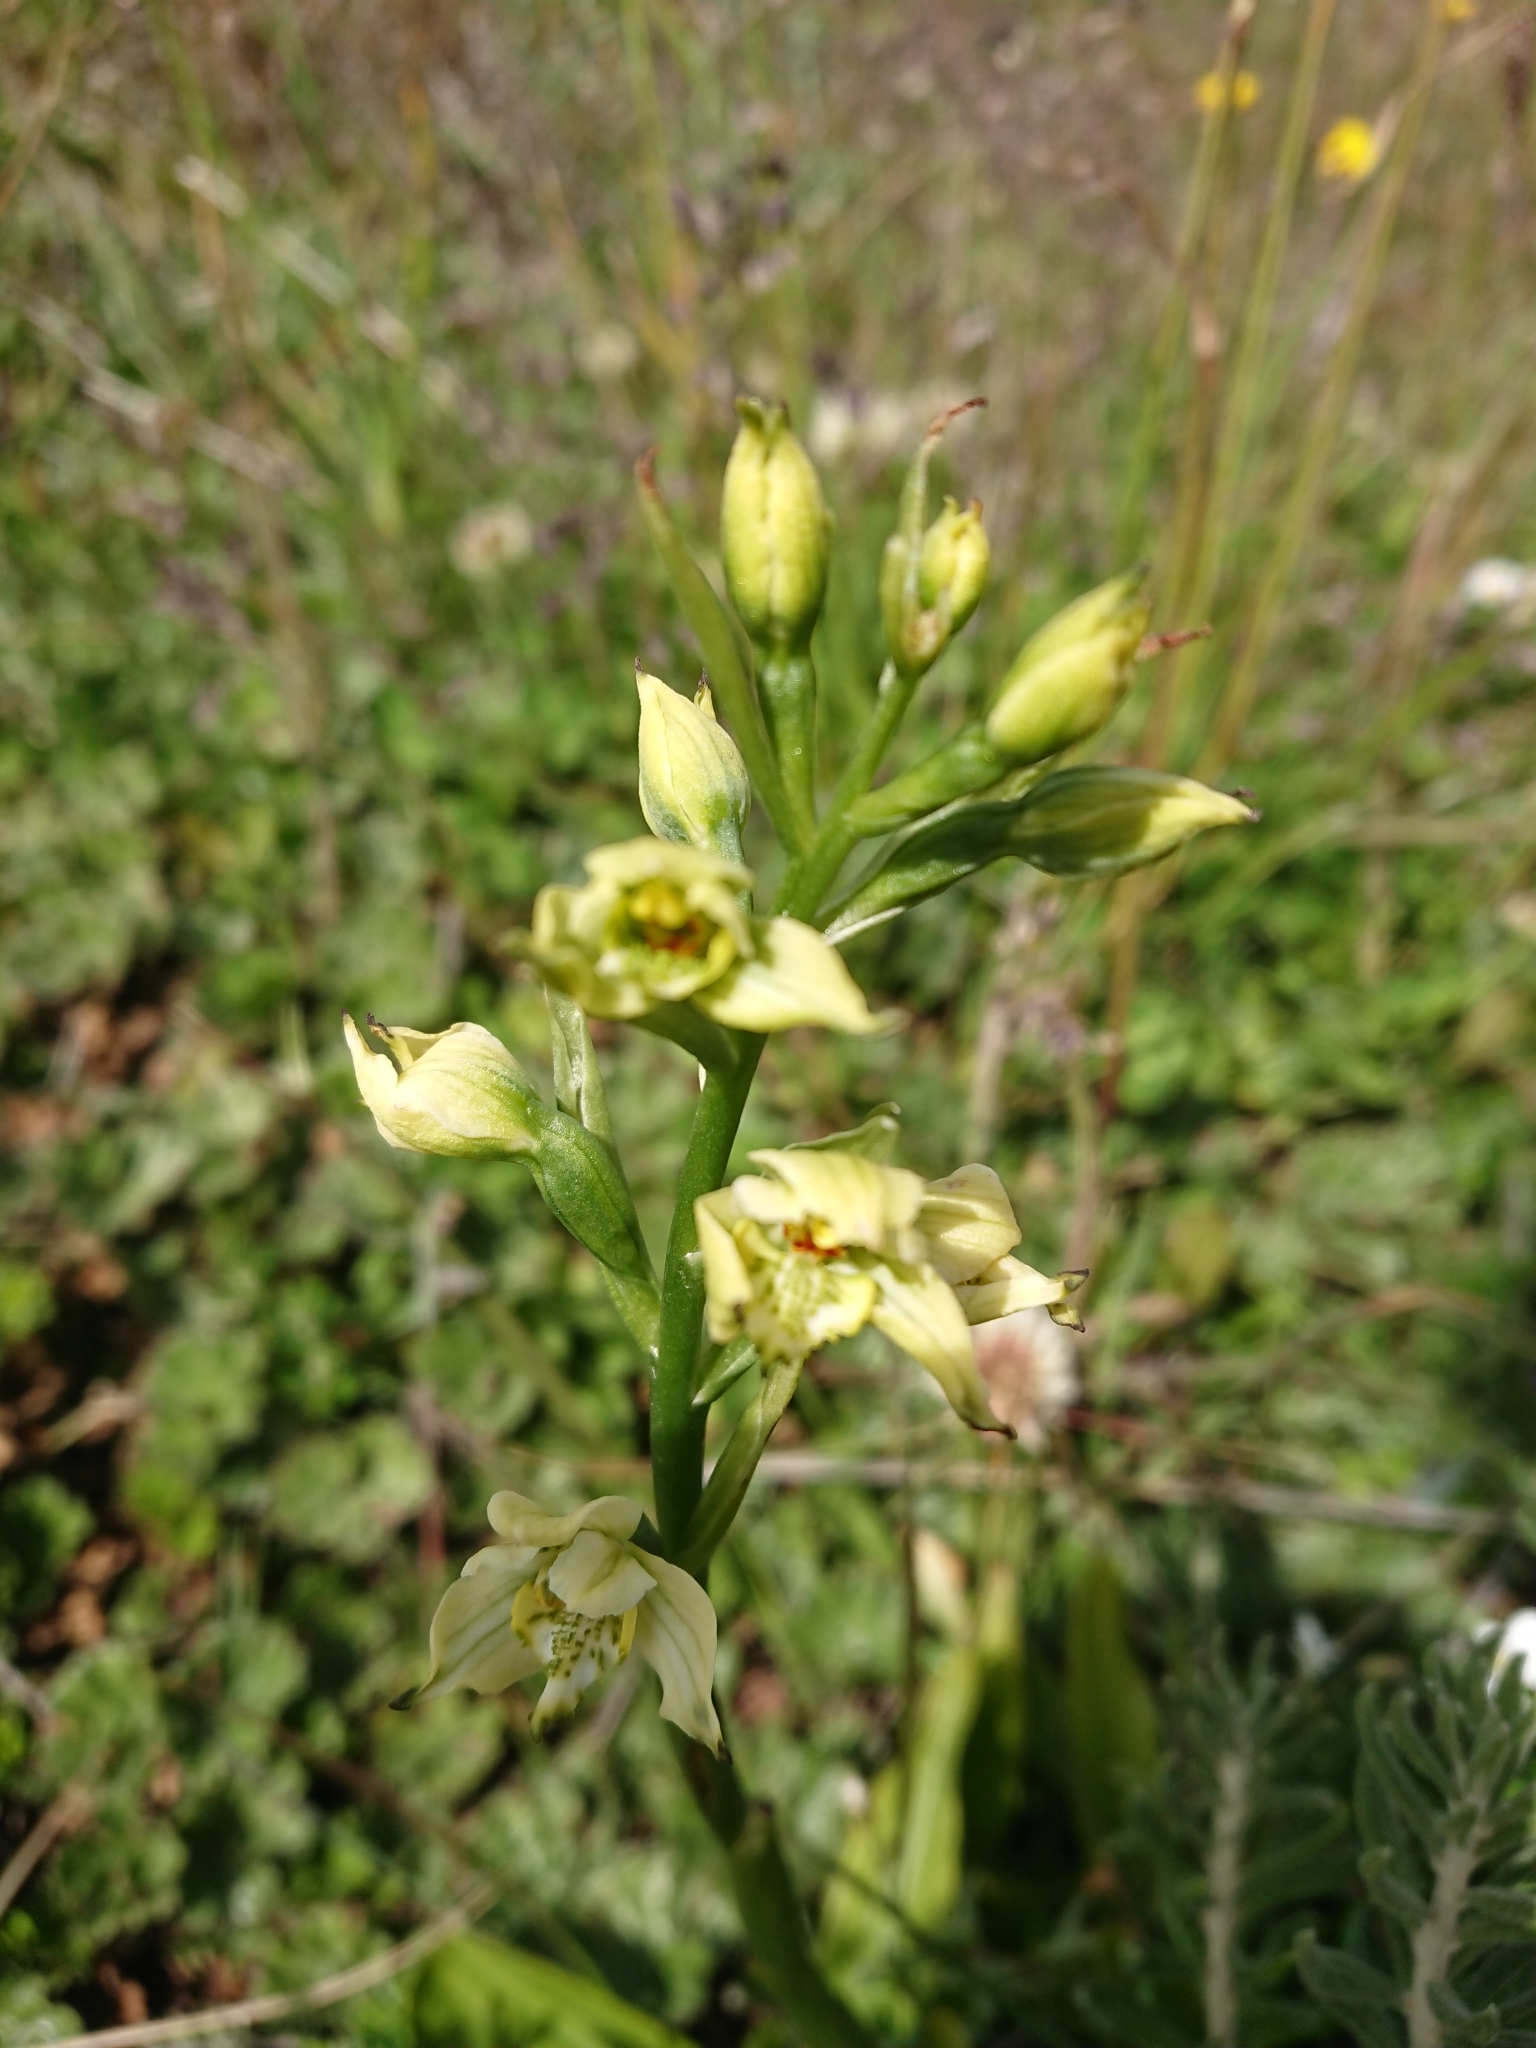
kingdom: Plantae
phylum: Tracheophyta
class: Liliopsida
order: Asparagales
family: Orchidaceae
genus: Gavilea
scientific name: Gavilea australis
